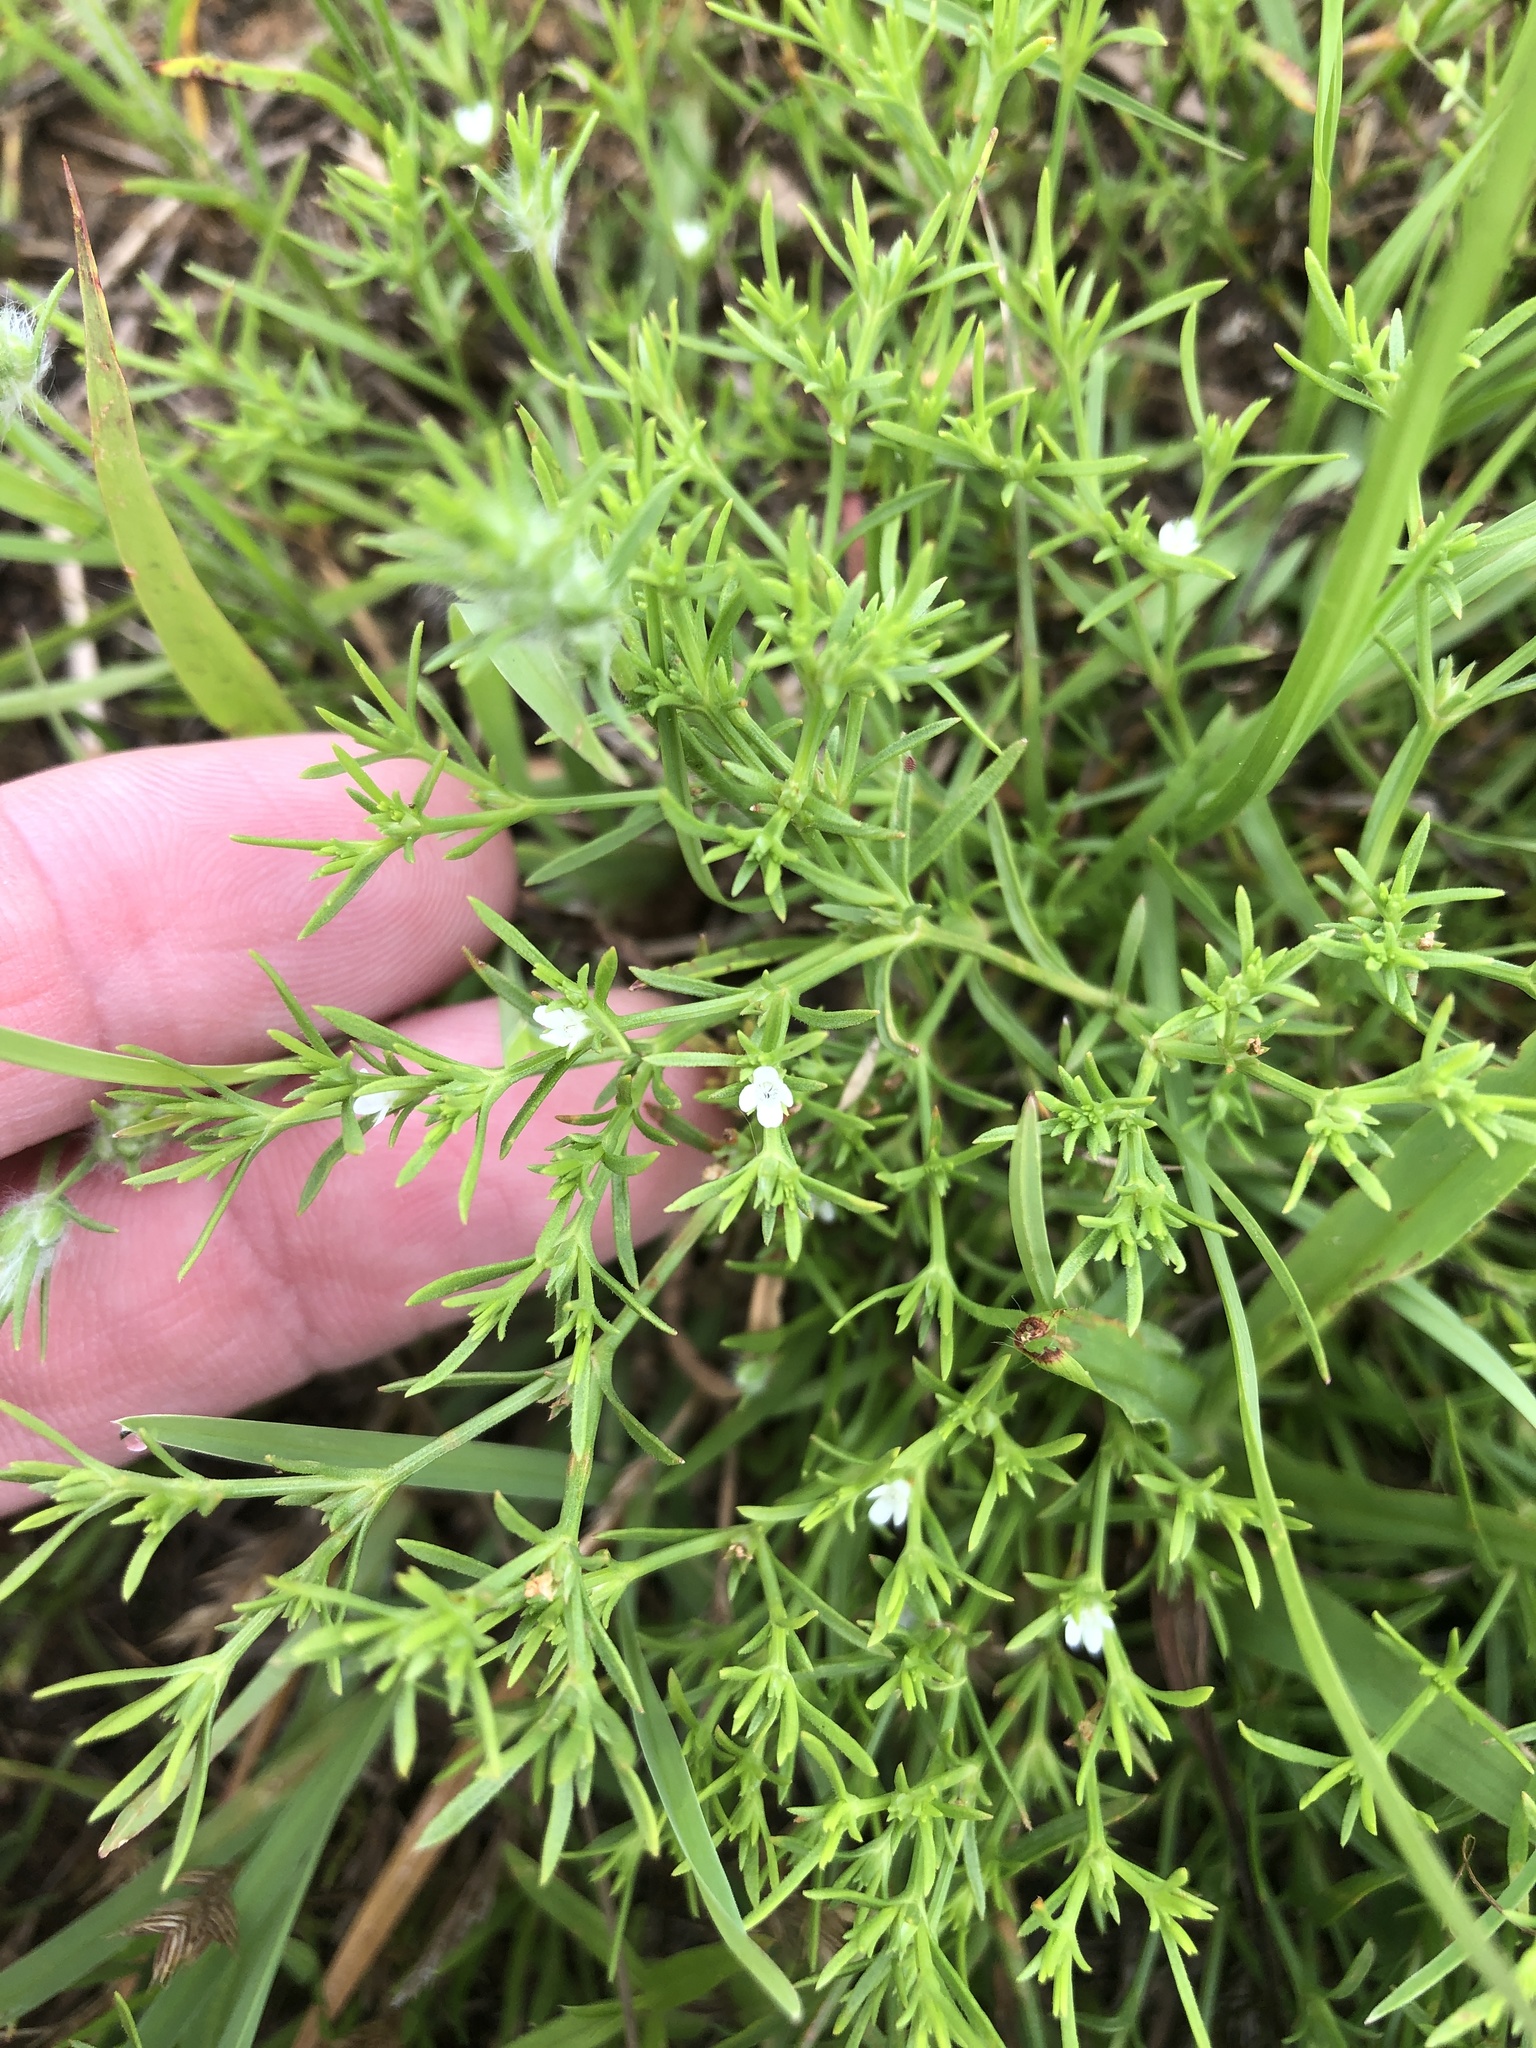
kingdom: Plantae
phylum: Tracheophyta
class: Magnoliopsida
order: Lamiales
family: Tetrachondraceae
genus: Polypremum
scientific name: Polypremum procumbens
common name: Juniper-leaf
